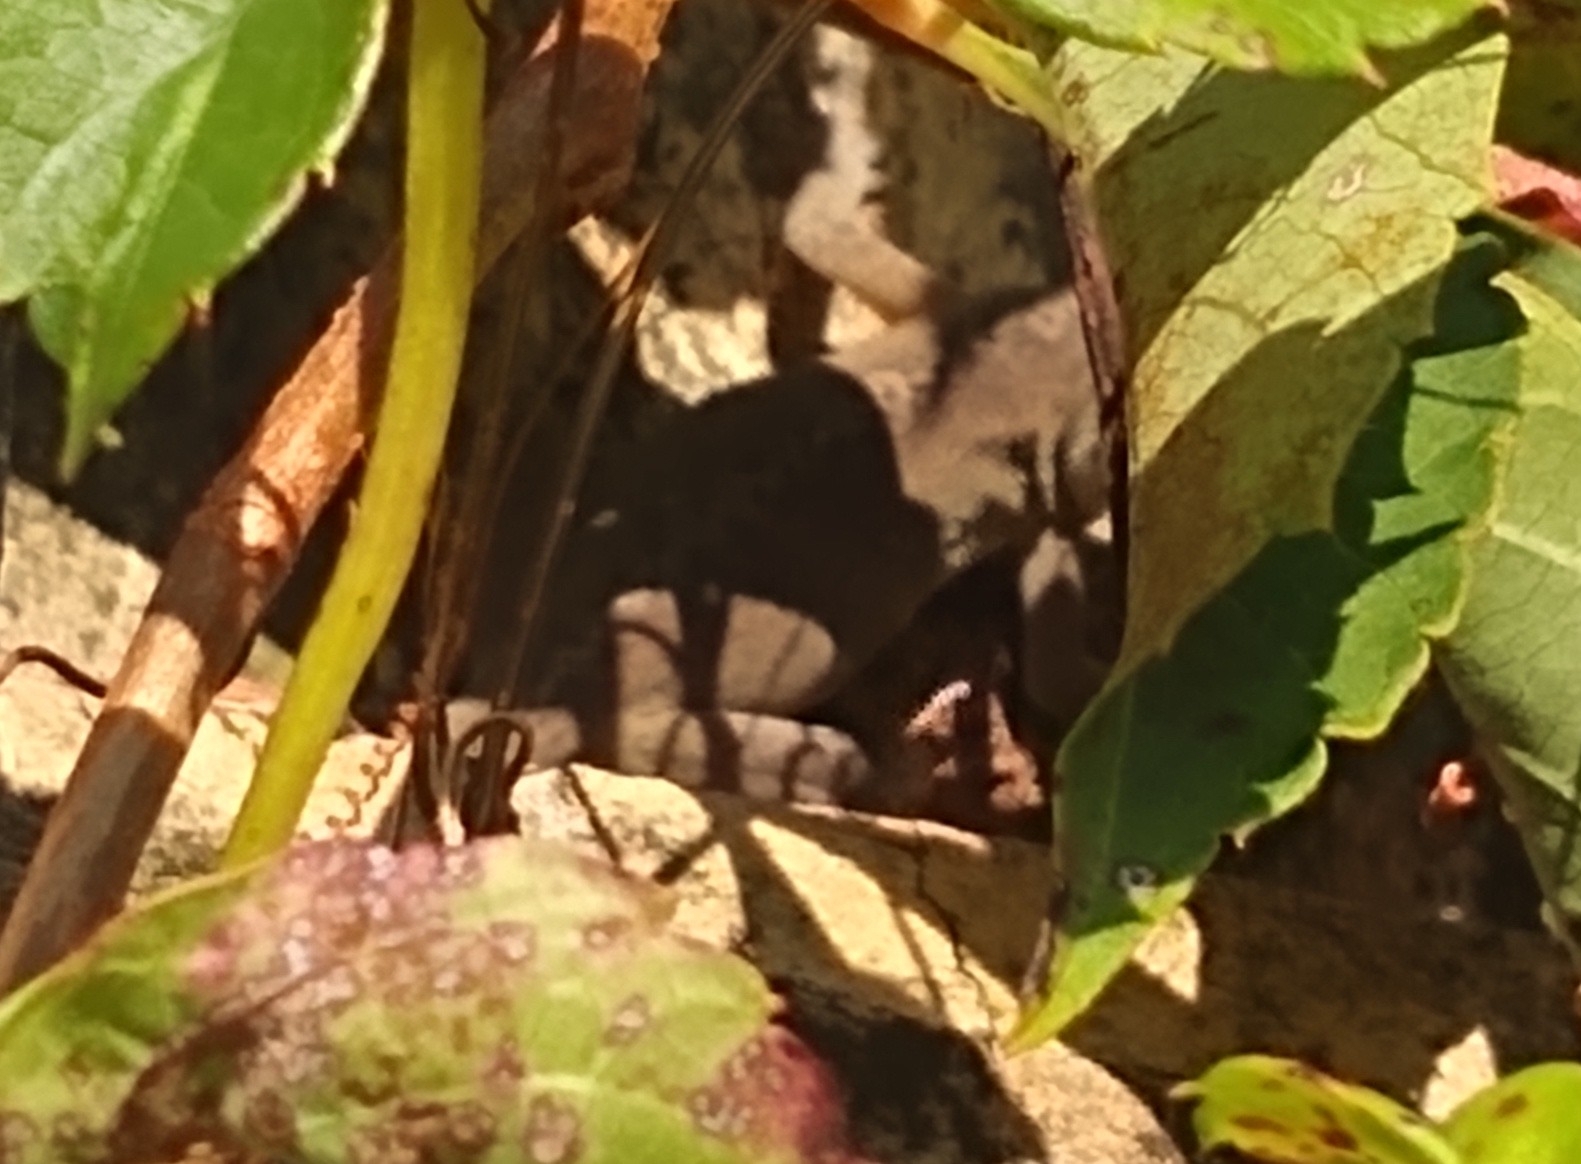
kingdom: Animalia
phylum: Chordata
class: Squamata
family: Dactyloidae
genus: Anolis
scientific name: Anolis carolinensis
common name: Green anole
